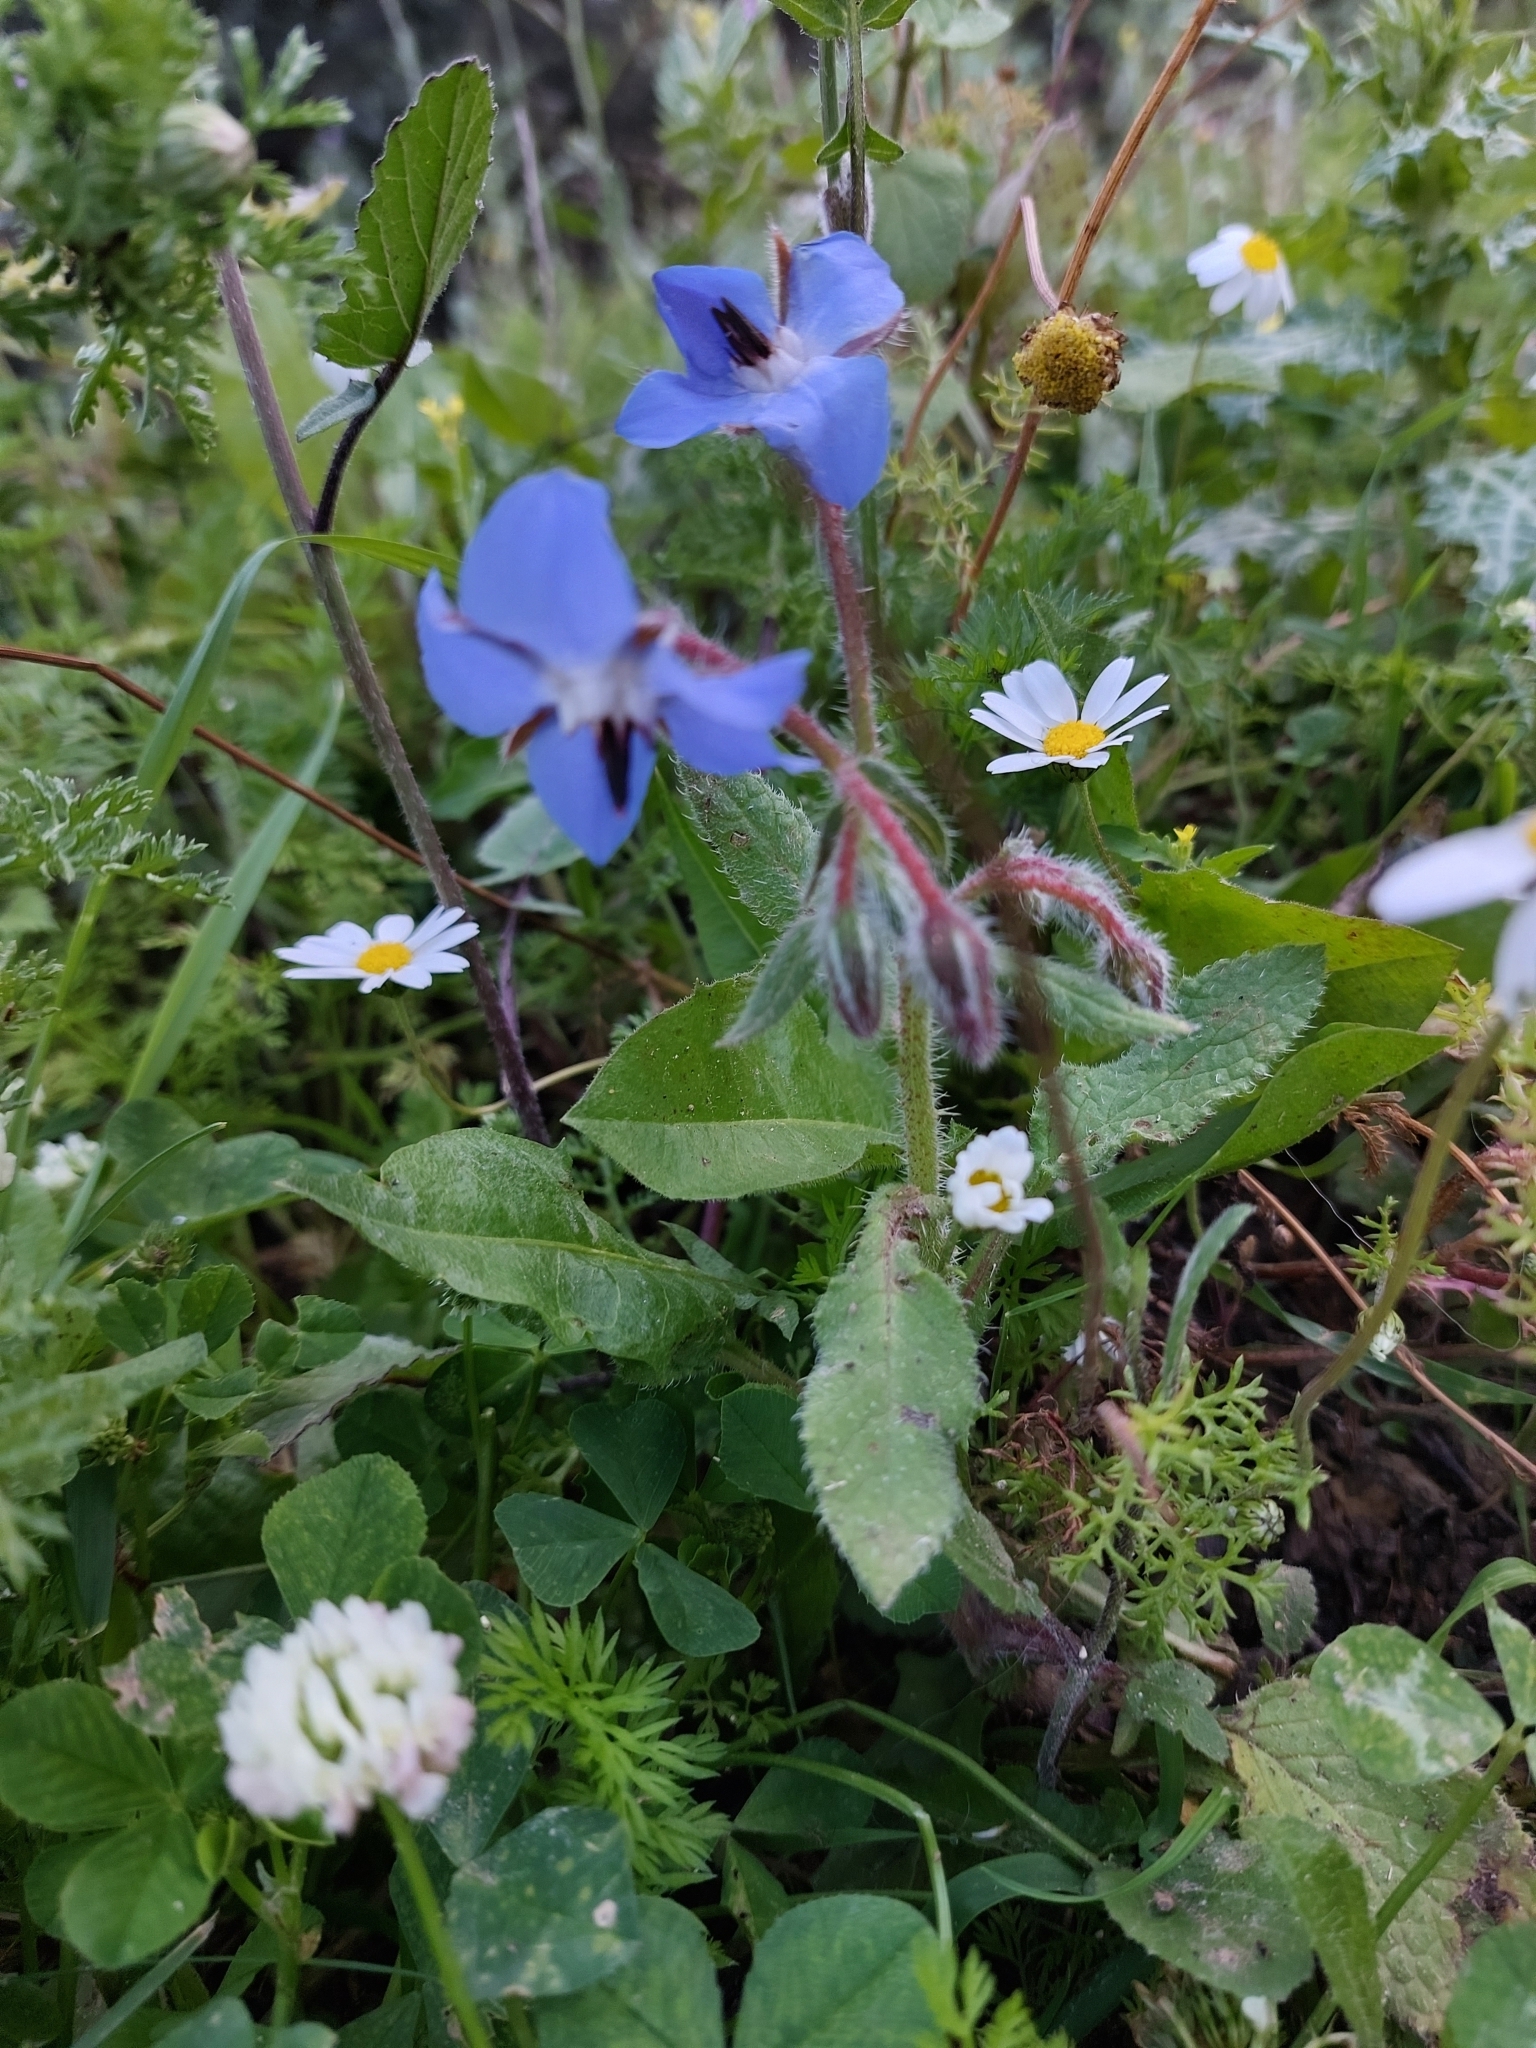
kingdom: Plantae
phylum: Tracheophyta
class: Magnoliopsida
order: Boraginales
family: Boraginaceae
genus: Borago
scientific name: Borago officinalis
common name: Borage
